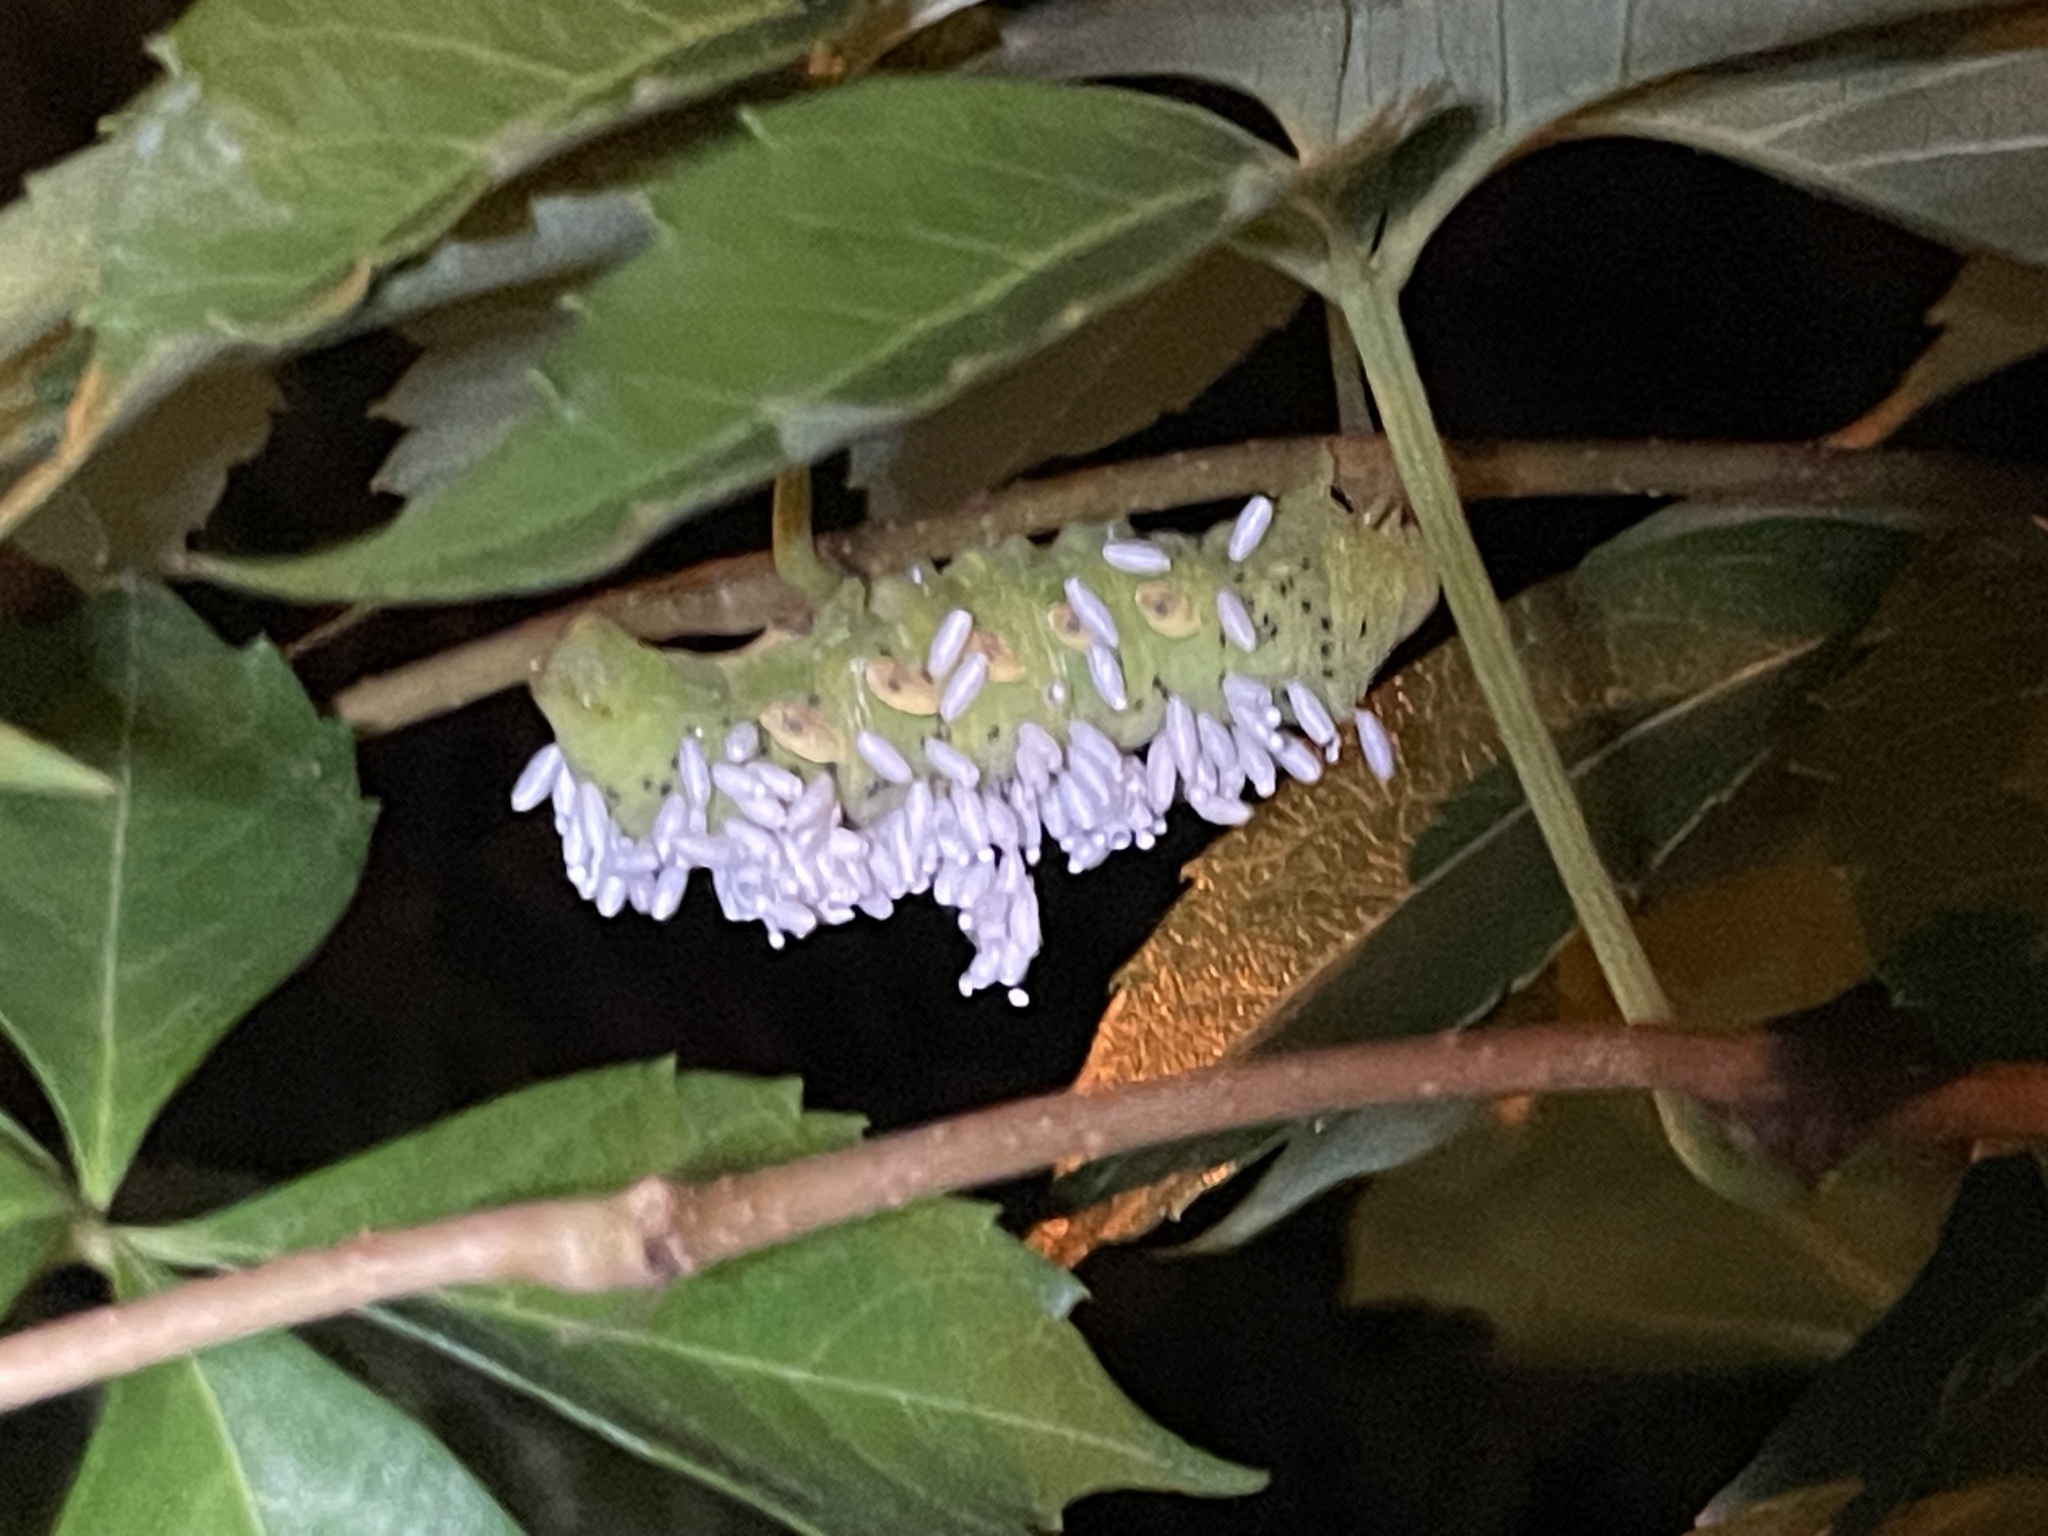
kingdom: Animalia
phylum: Arthropoda
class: Insecta
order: Lepidoptera
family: Sphingidae
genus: Eumorpha
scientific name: Eumorpha pandorus
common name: Pandora sphinx
